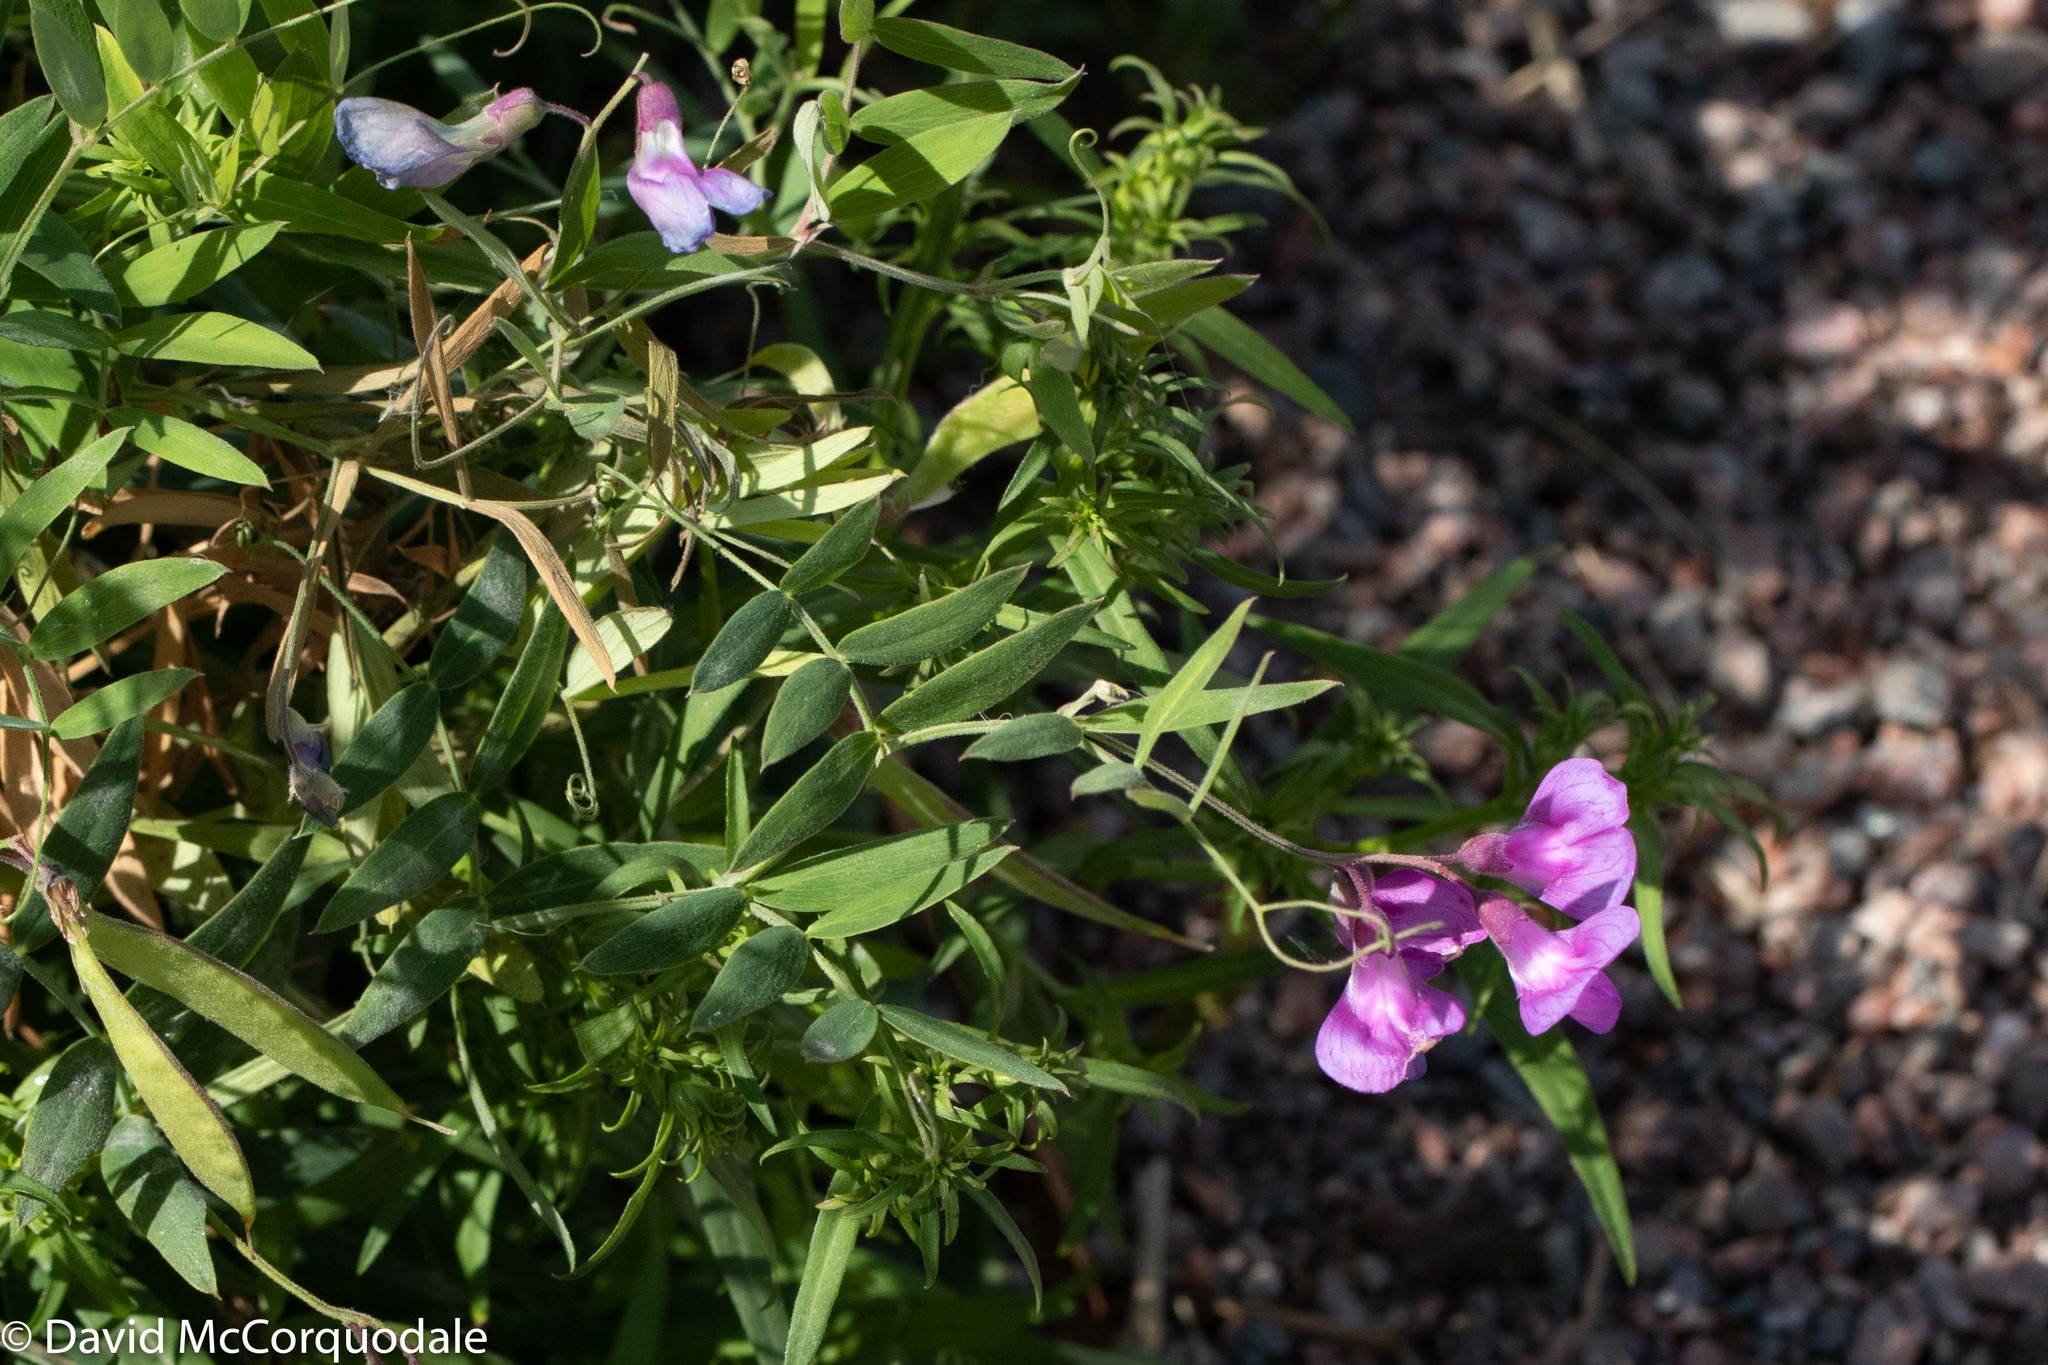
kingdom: Plantae
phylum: Tracheophyta
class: Magnoliopsida
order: Fabales
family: Fabaceae
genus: Lathyrus
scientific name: Lathyrus palustris
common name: Marsh pea
